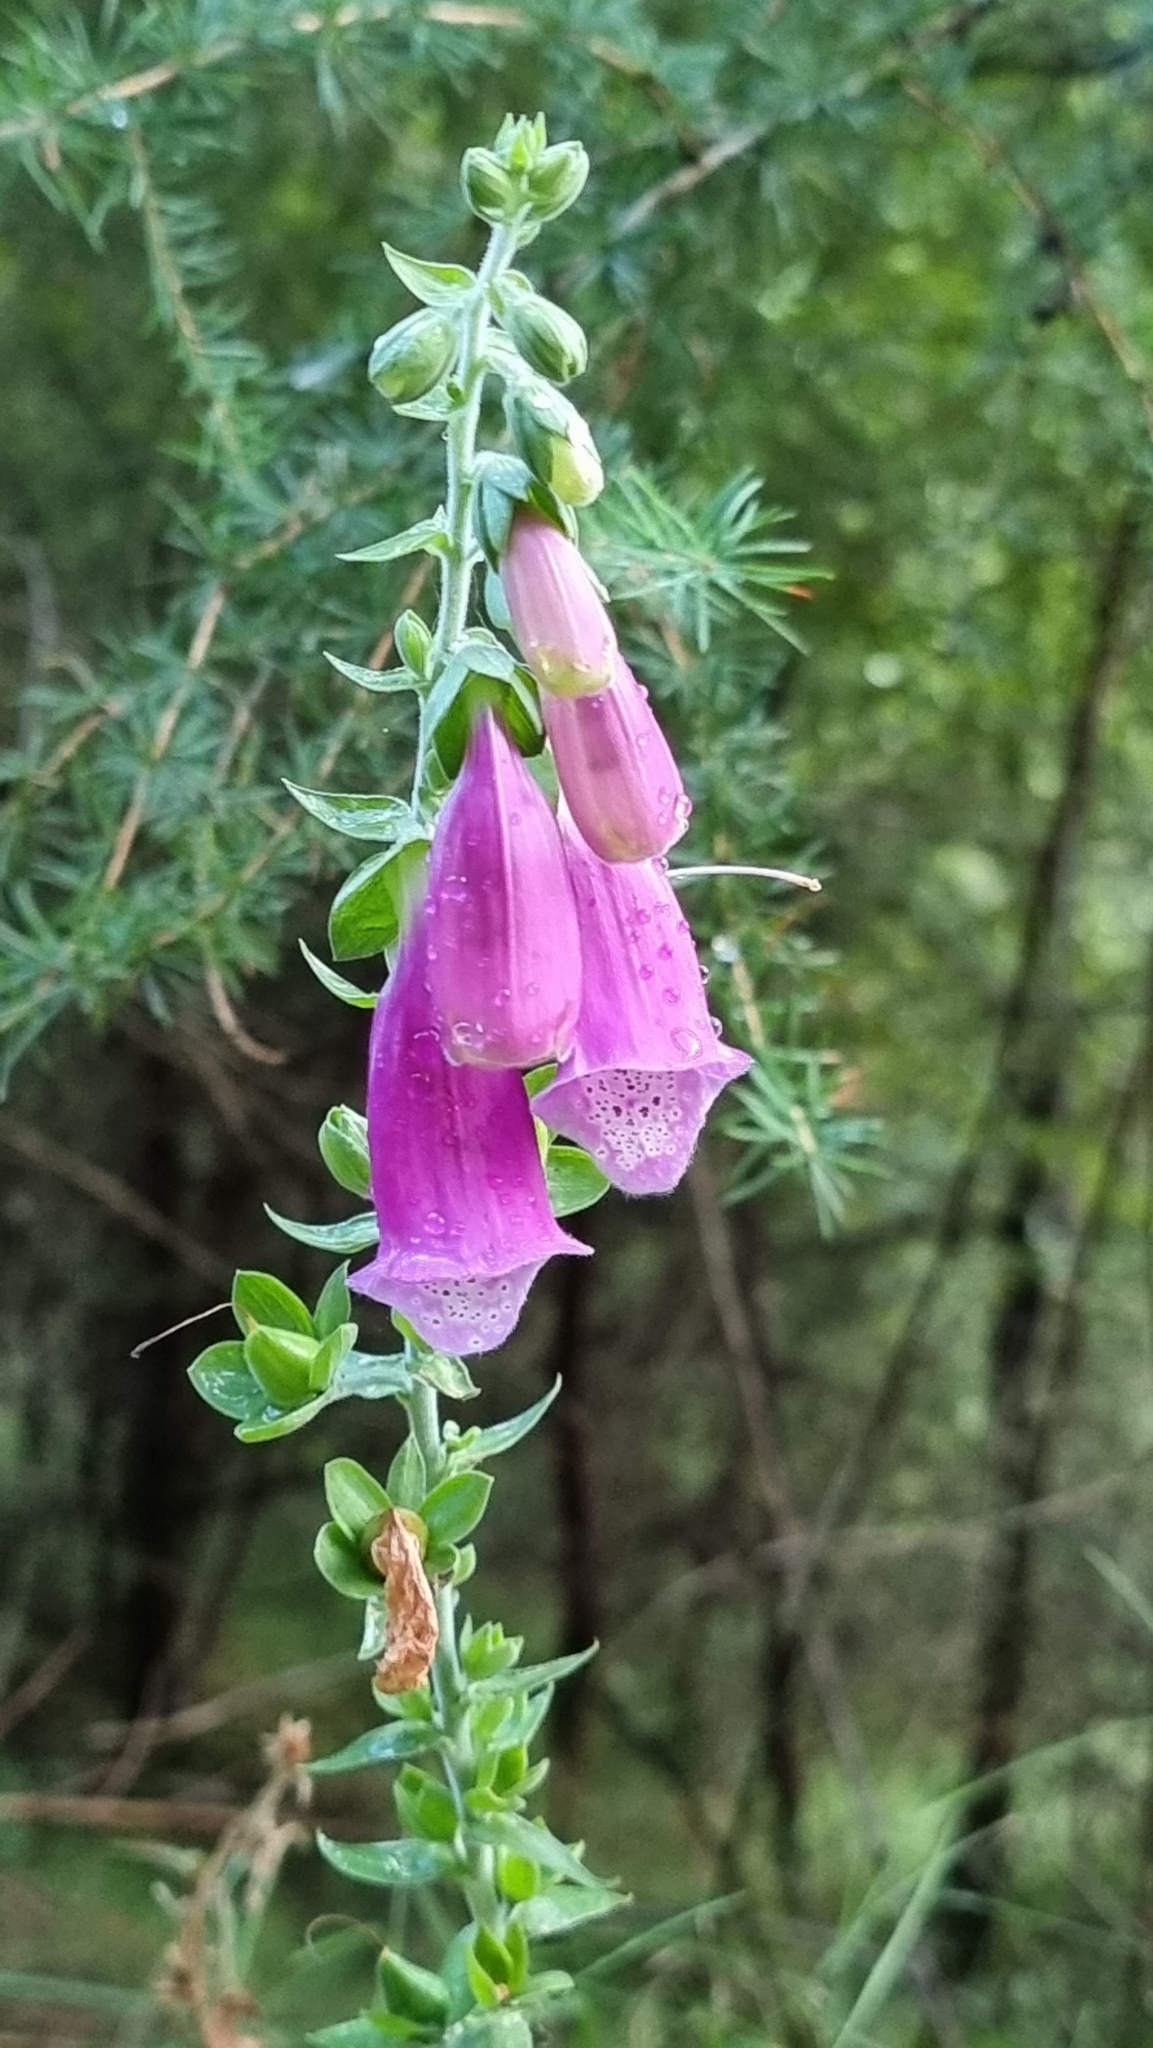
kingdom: Plantae
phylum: Tracheophyta
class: Magnoliopsida
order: Lamiales
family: Plantaginaceae
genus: Digitalis
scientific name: Digitalis purpurea
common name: Foxglove
